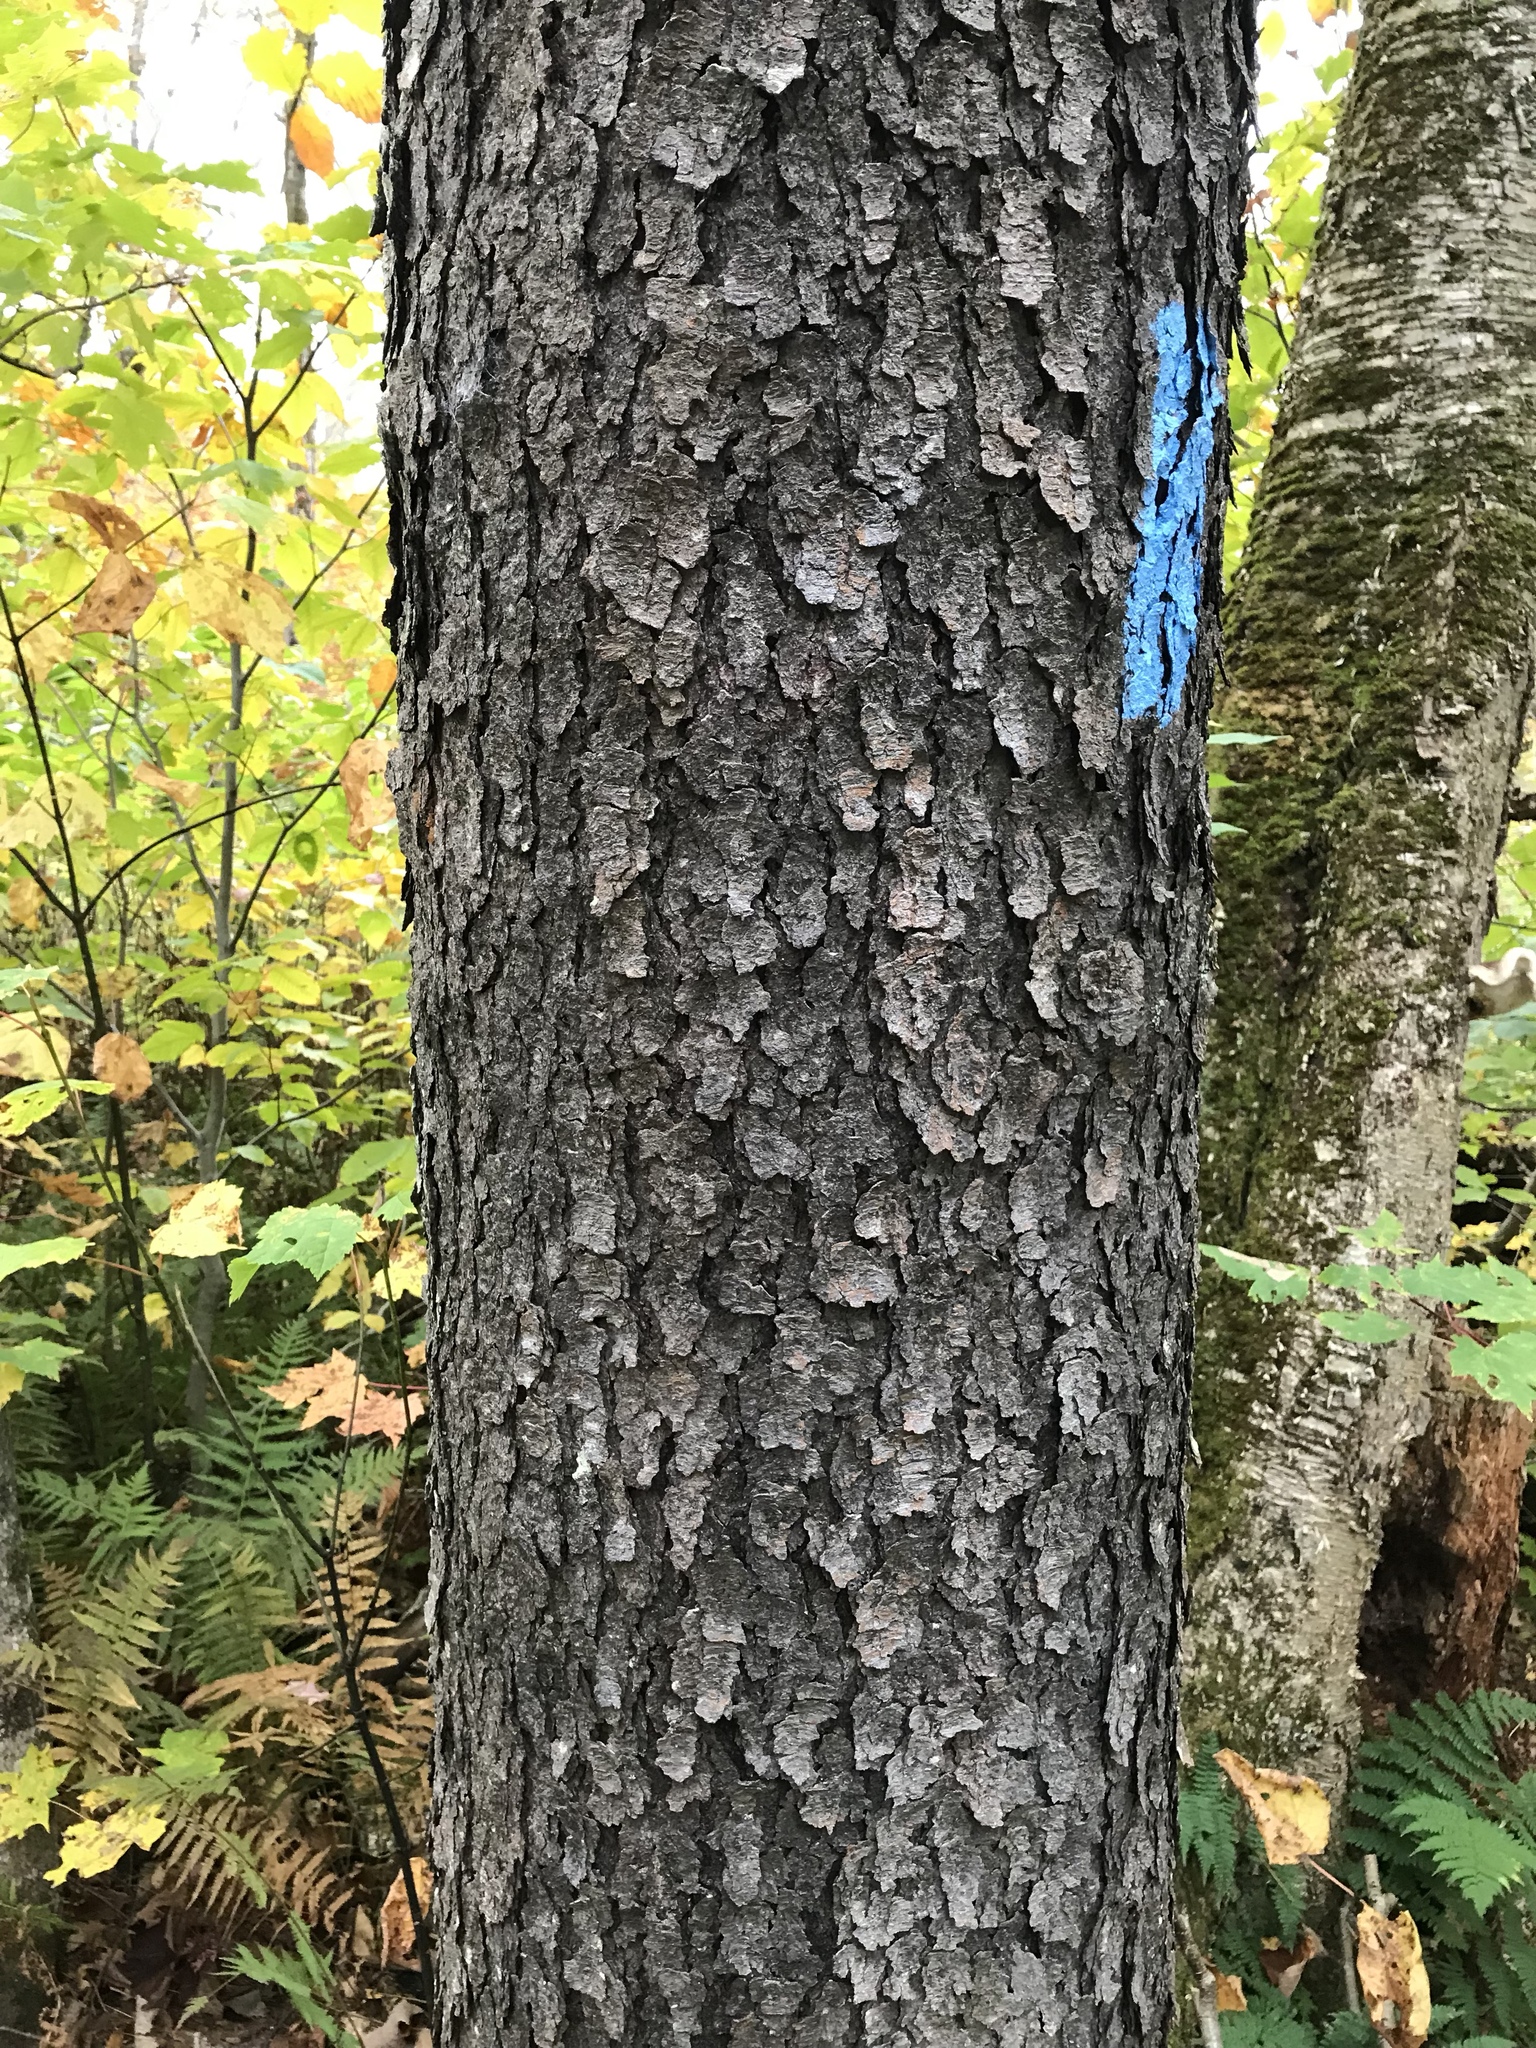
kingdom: Plantae
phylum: Tracheophyta
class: Magnoliopsida
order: Rosales
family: Rosaceae
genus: Prunus
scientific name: Prunus serotina
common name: Black cherry
